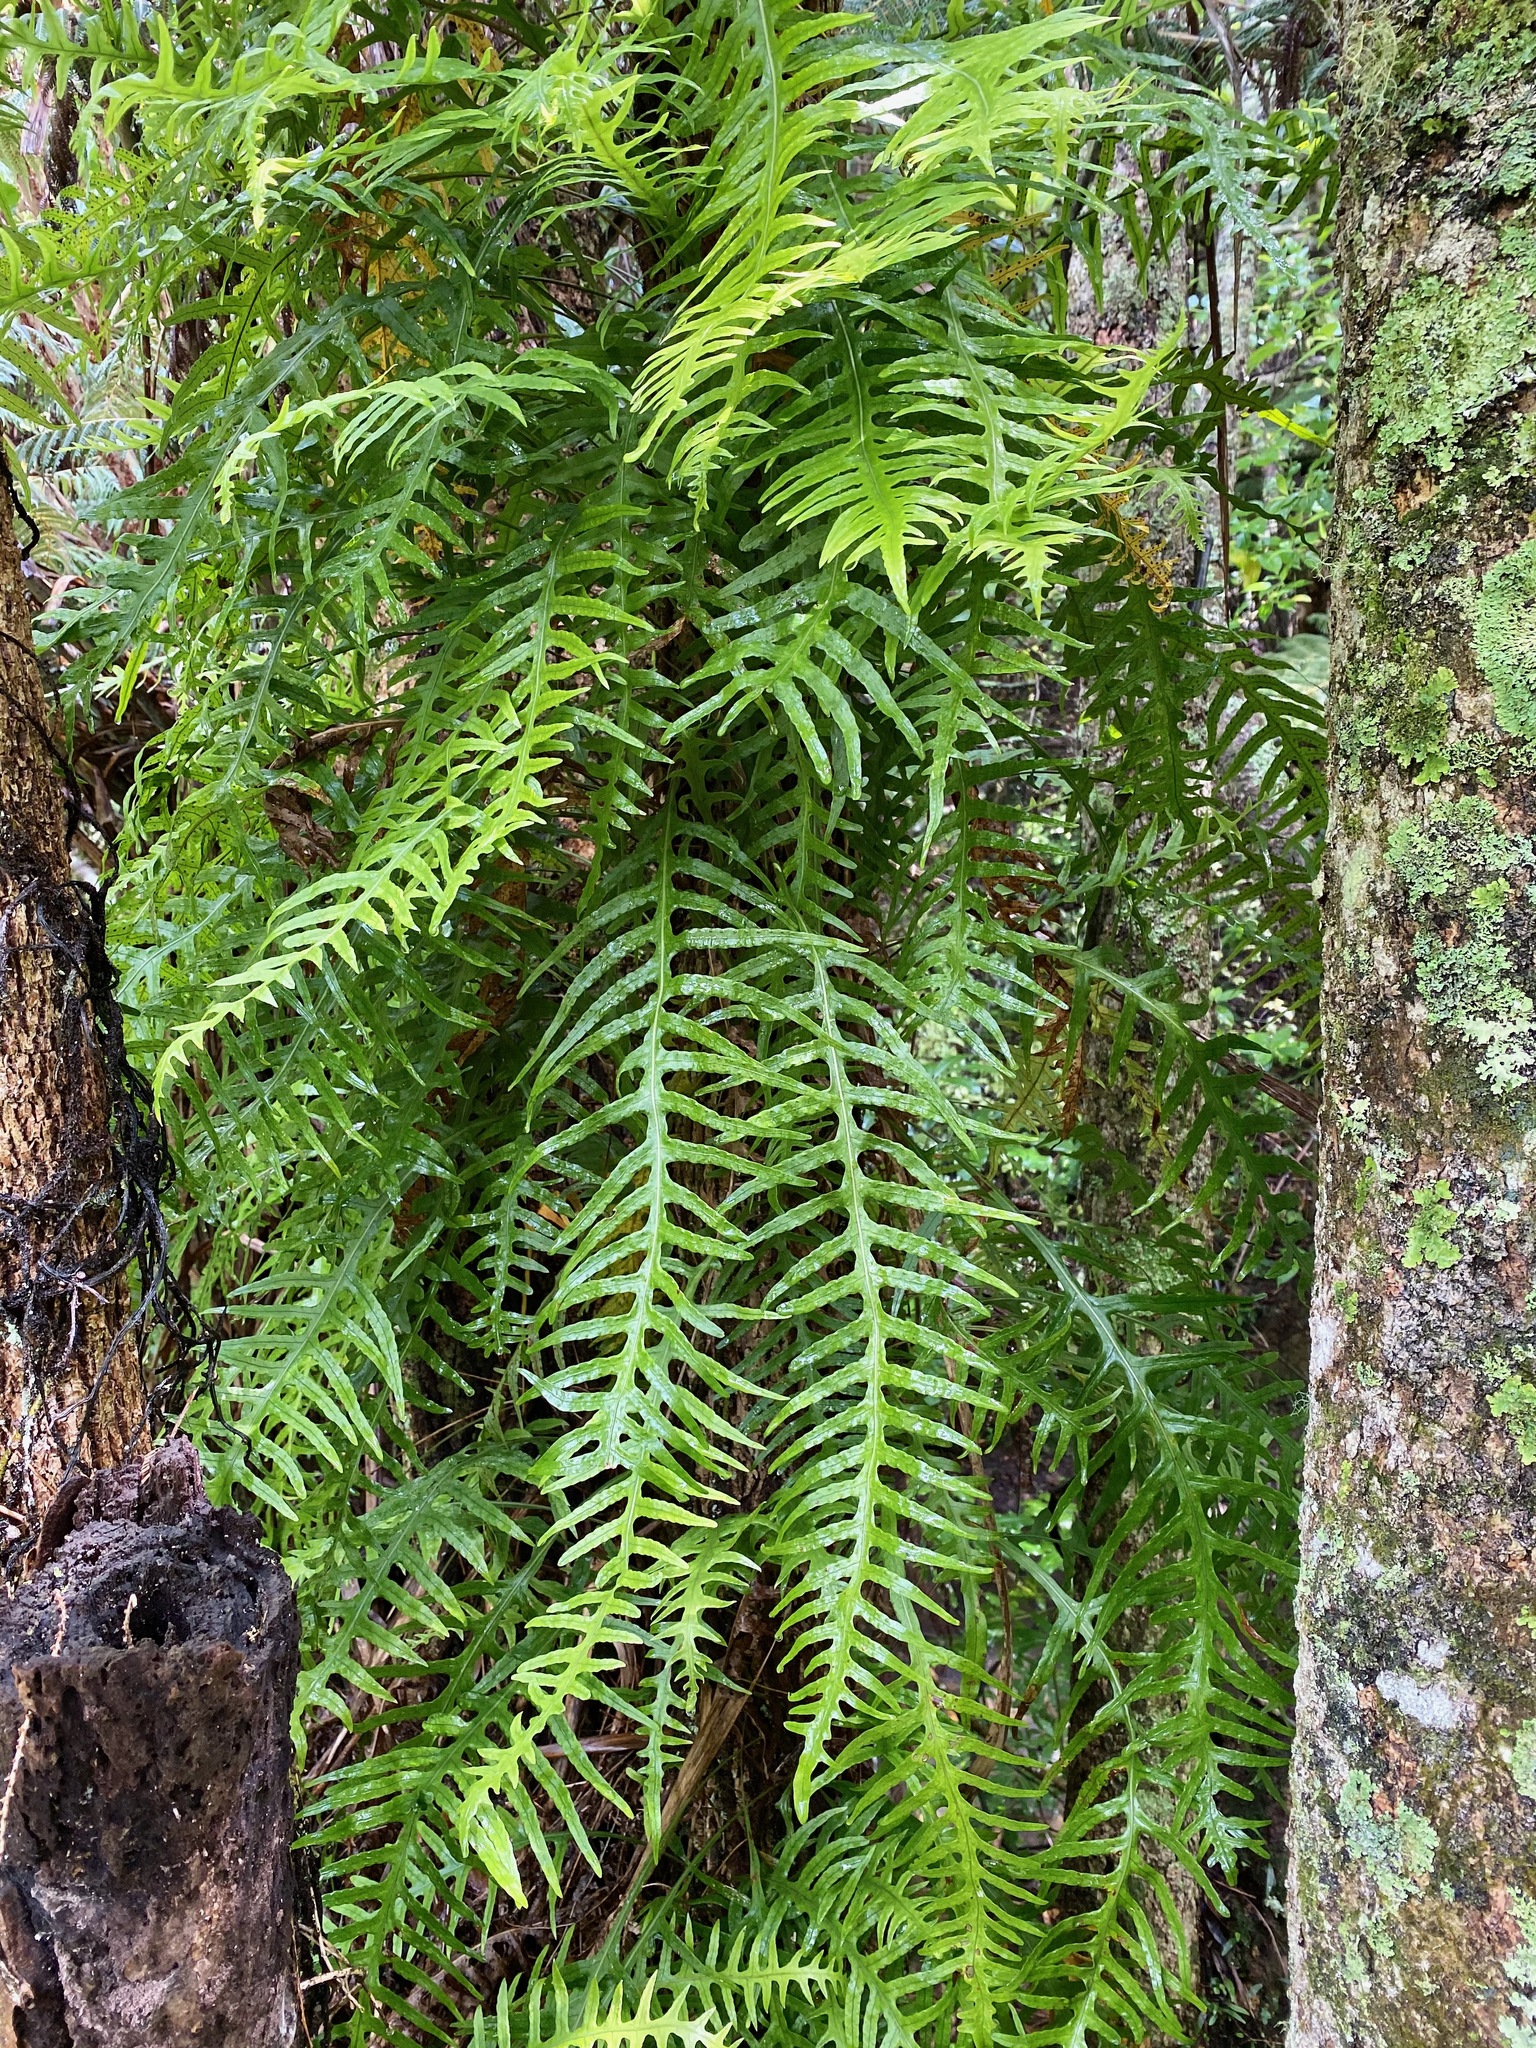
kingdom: Plantae
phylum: Tracheophyta
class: Polypodiopsida
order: Polypodiales
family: Polypodiaceae
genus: Lecanopteris
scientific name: Lecanopteris scandens
